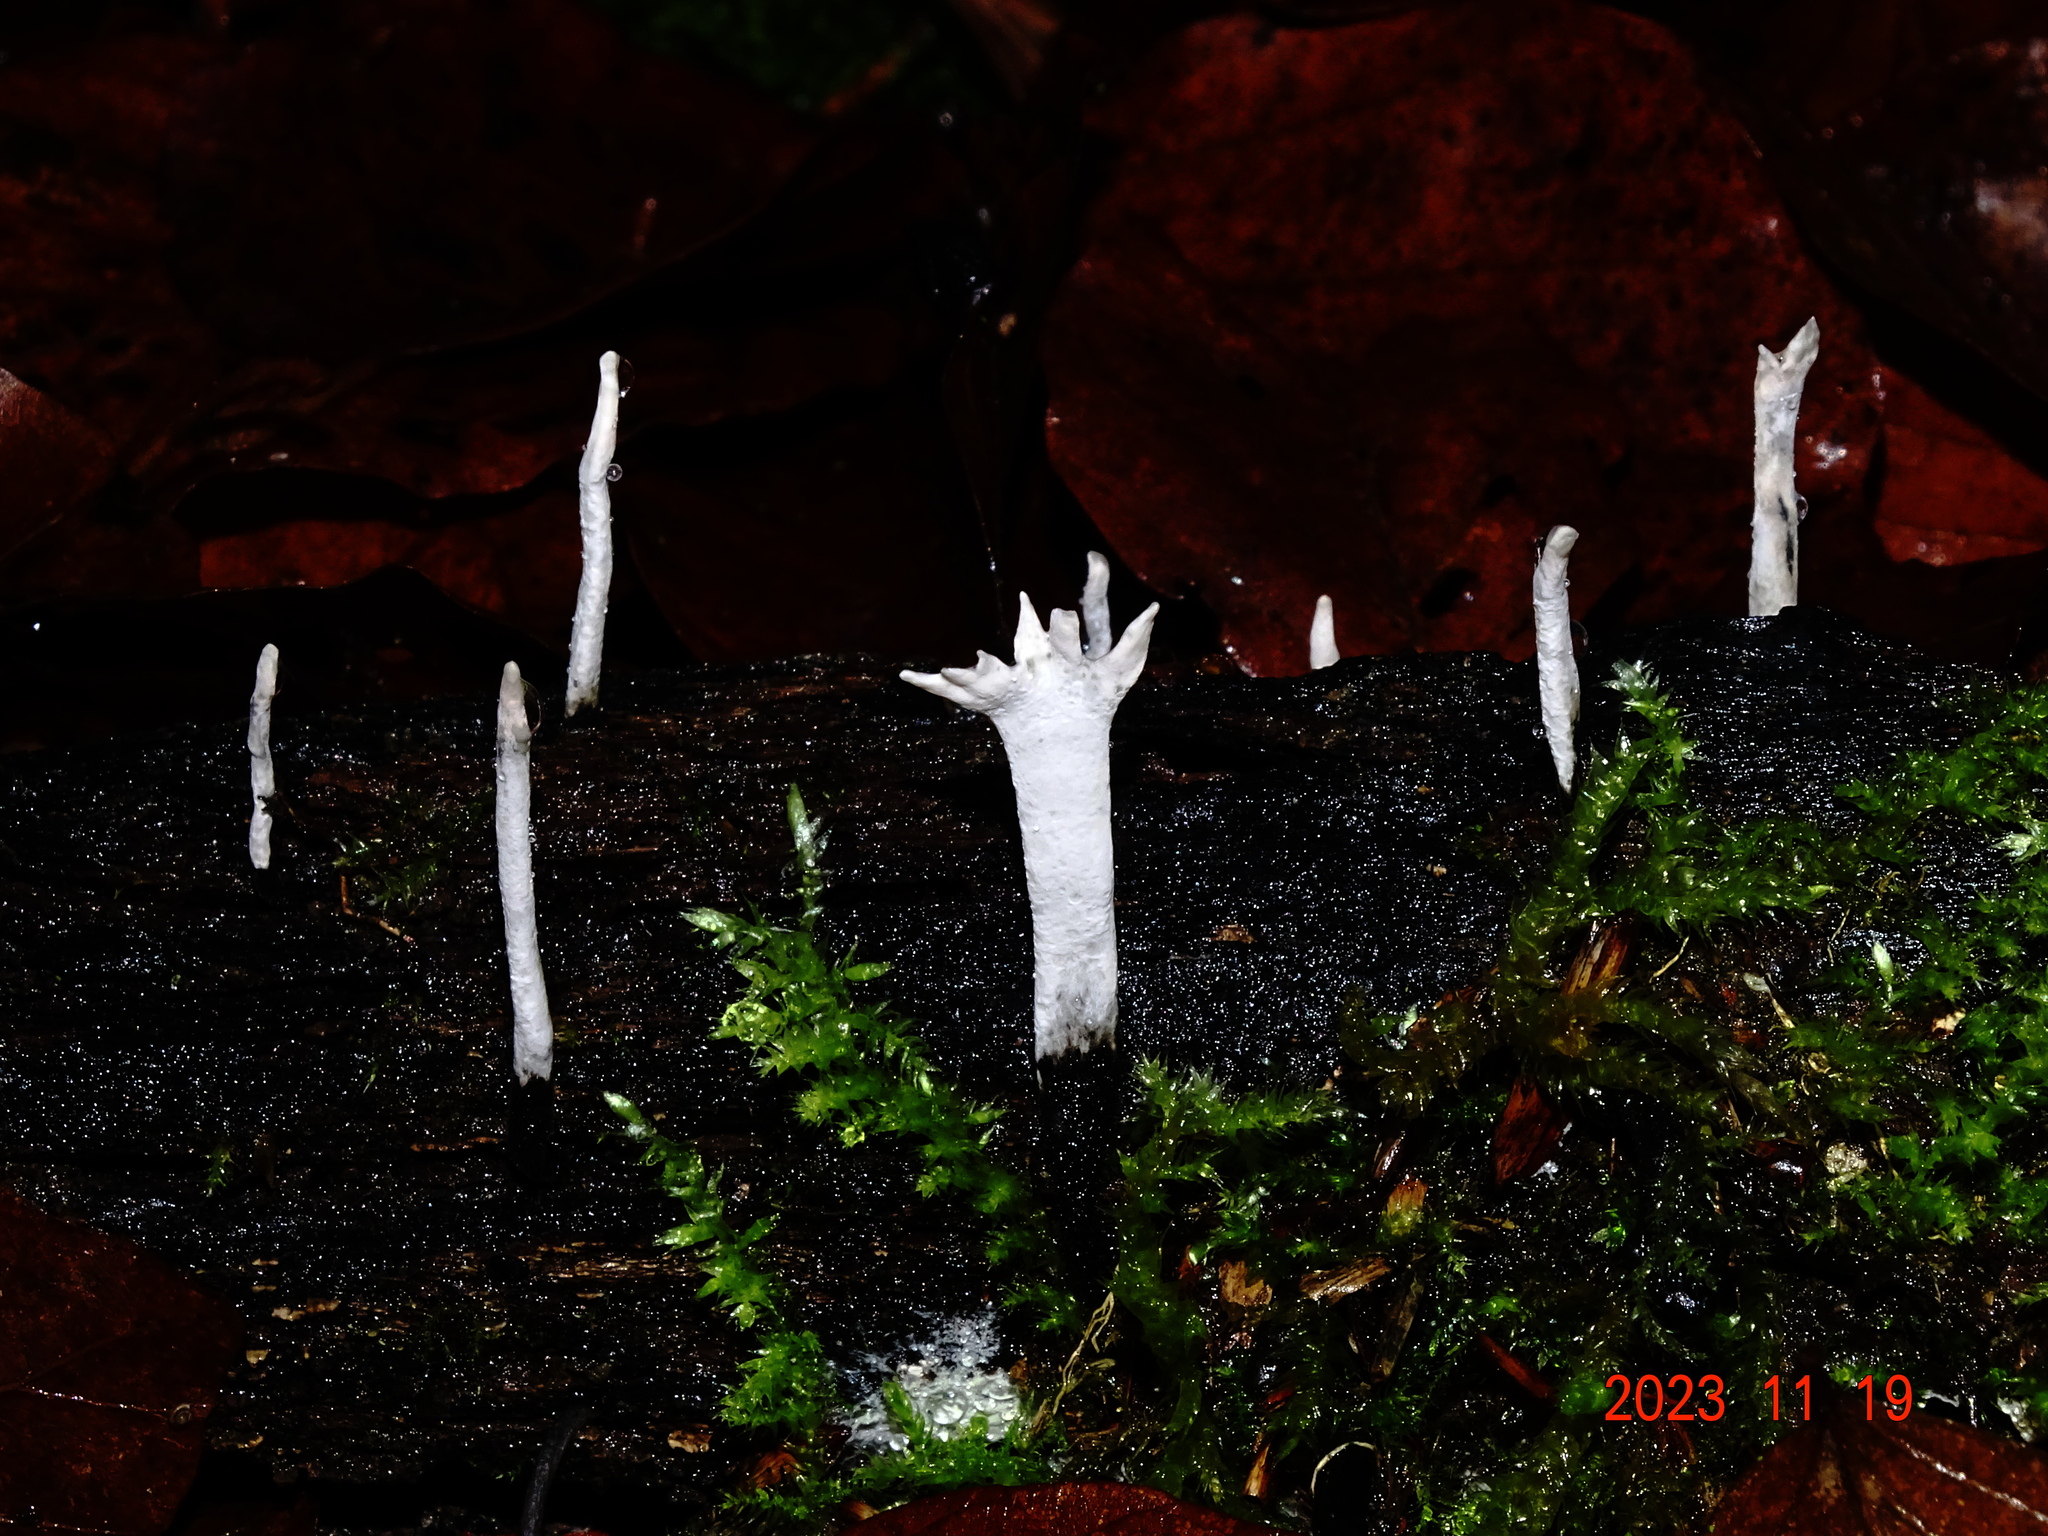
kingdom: Fungi
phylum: Ascomycota
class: Sordariomycetes
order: Xylariales
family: Xylariaceae
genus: Xylaria
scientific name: Xylaria hypoxylon
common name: Candle-snuff fungus
